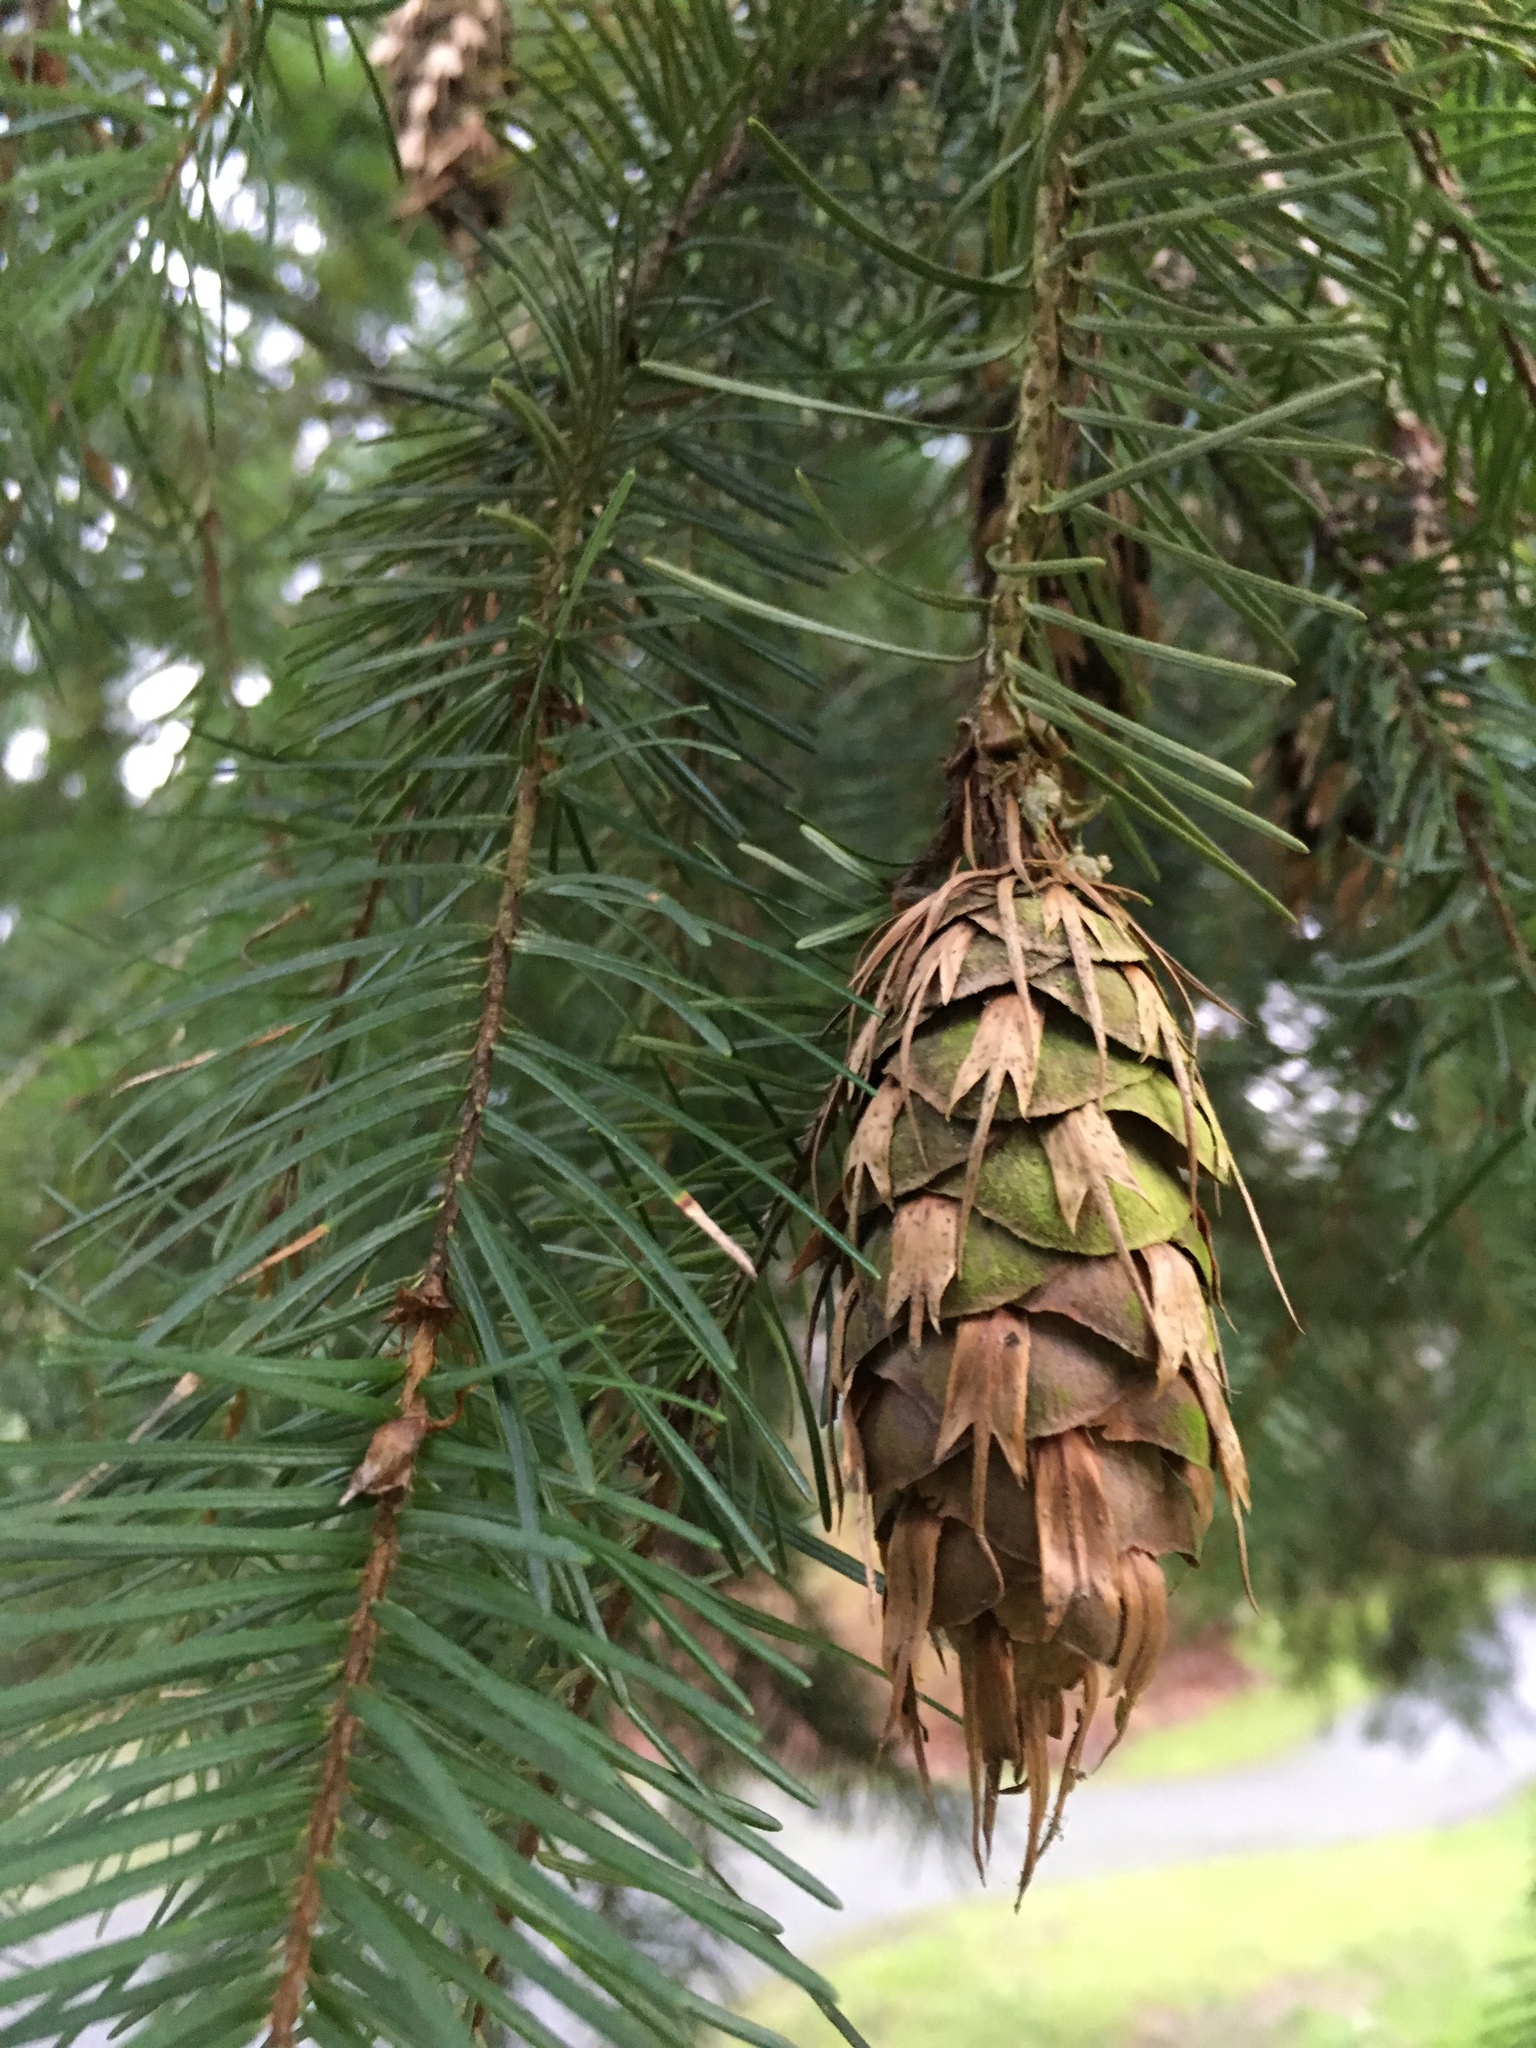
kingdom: Plantae
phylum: Tracheophyta
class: Pinopsida
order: Pinales
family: Pinaceae
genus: Pseudotsuga
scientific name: Pseudotsuga menziesii
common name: Douglas fir
